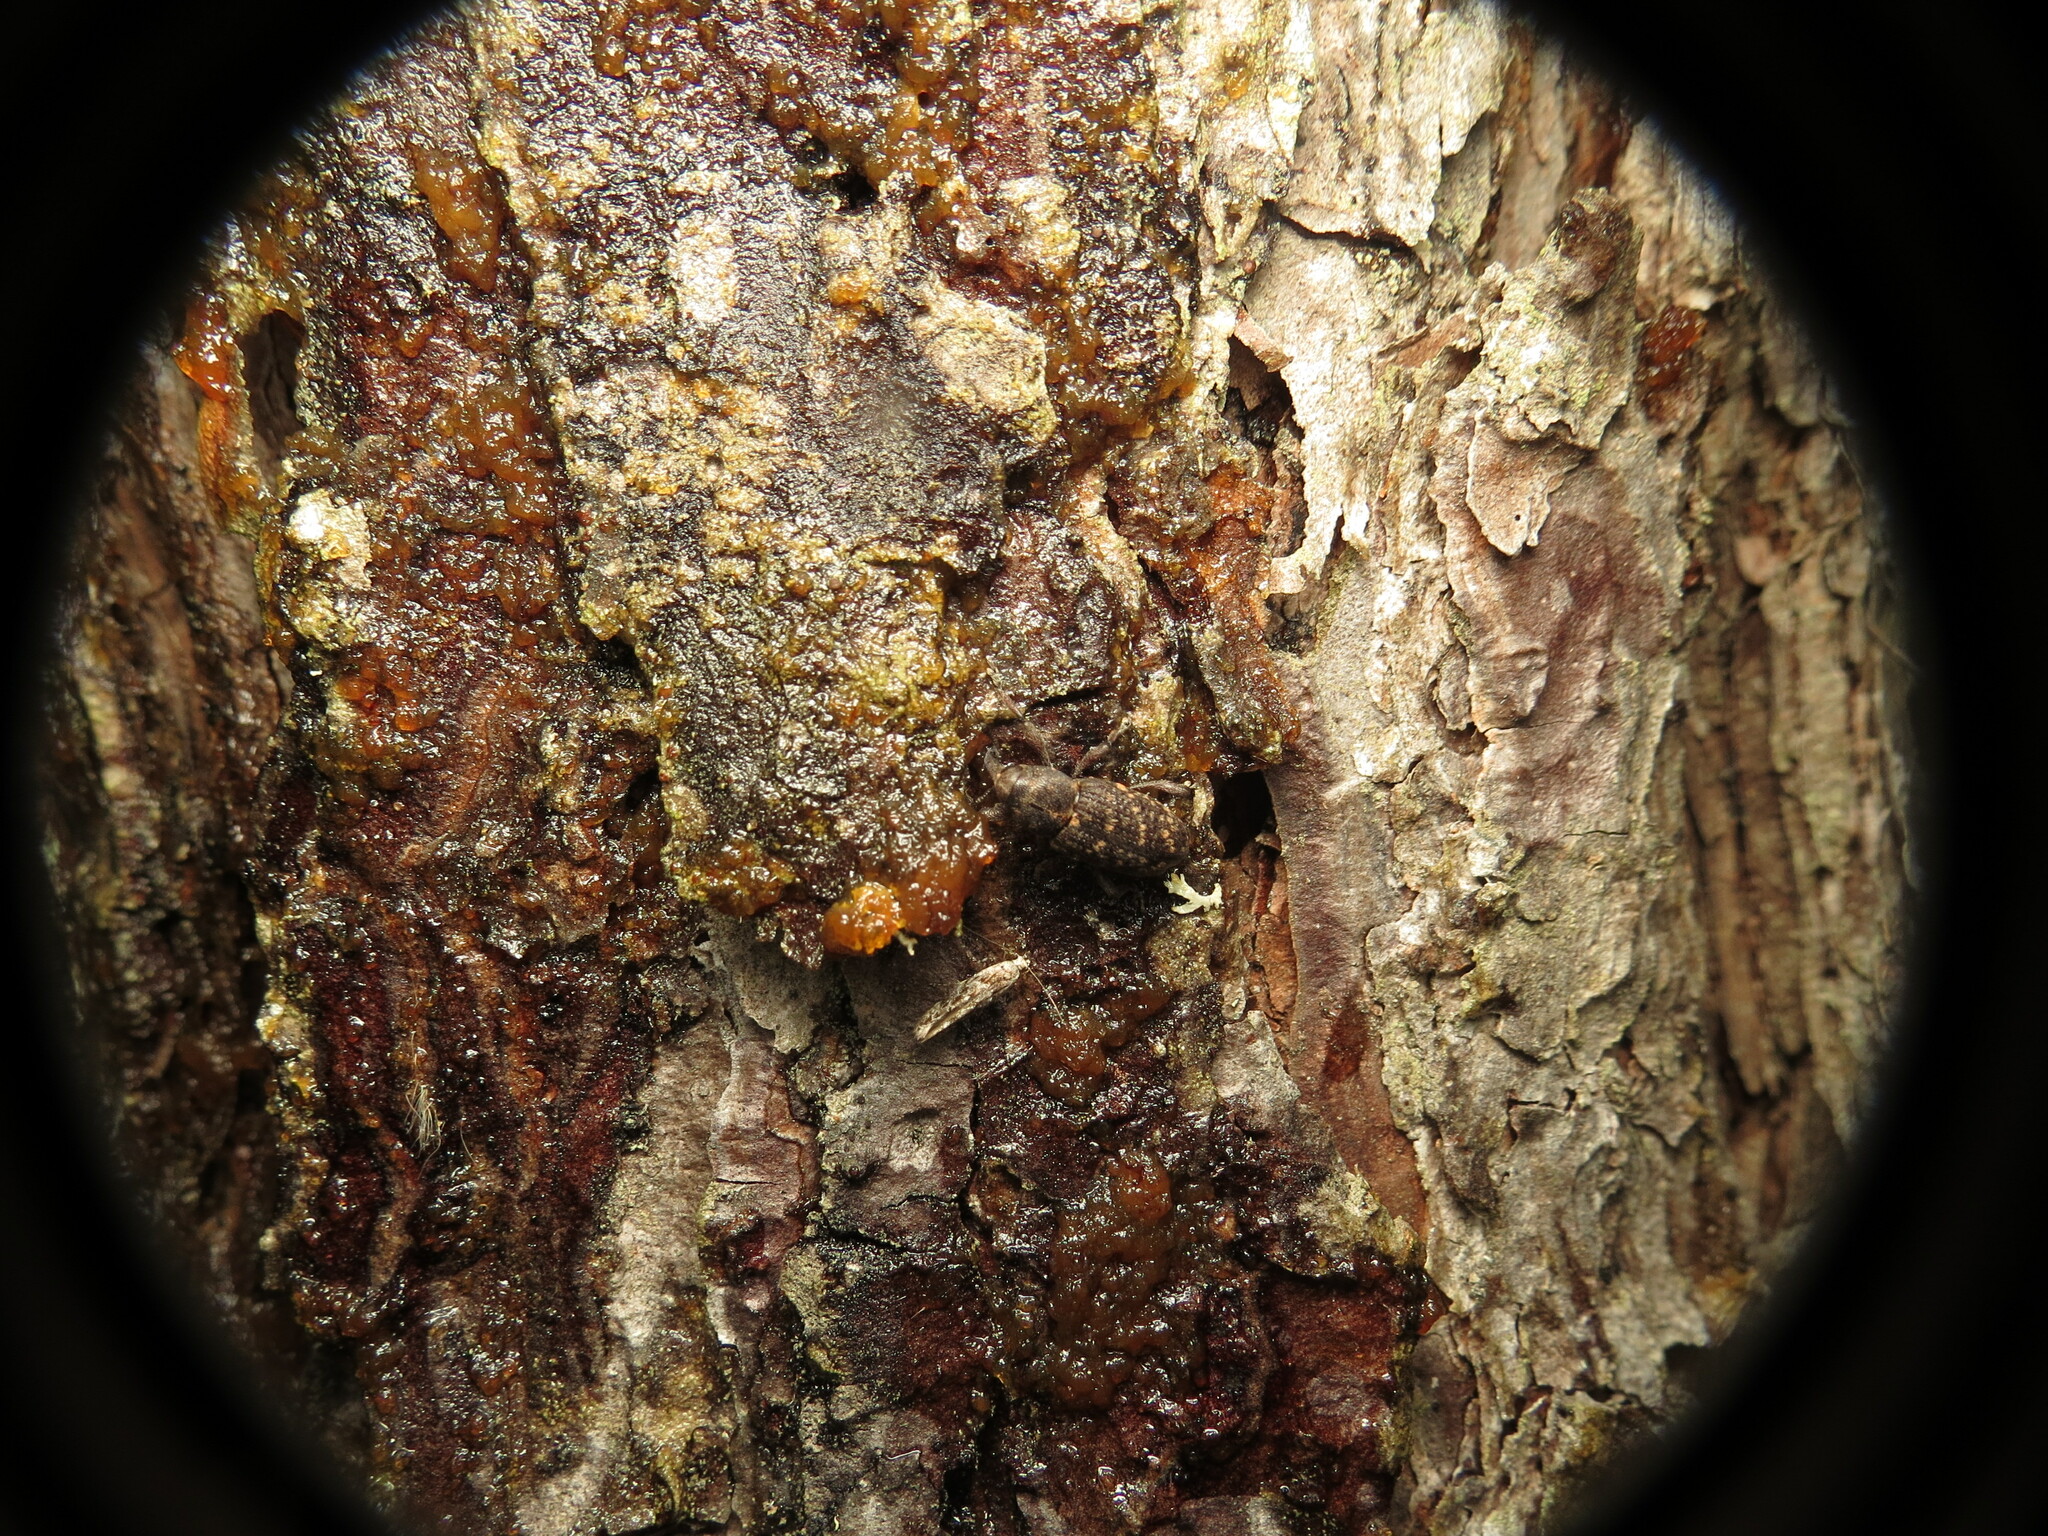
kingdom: Animalia
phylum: Arthropoda
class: Insecta
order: Coleoptera
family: Curculionidae
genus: Hylobius
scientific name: Hylobius pales
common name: Pales weevil
